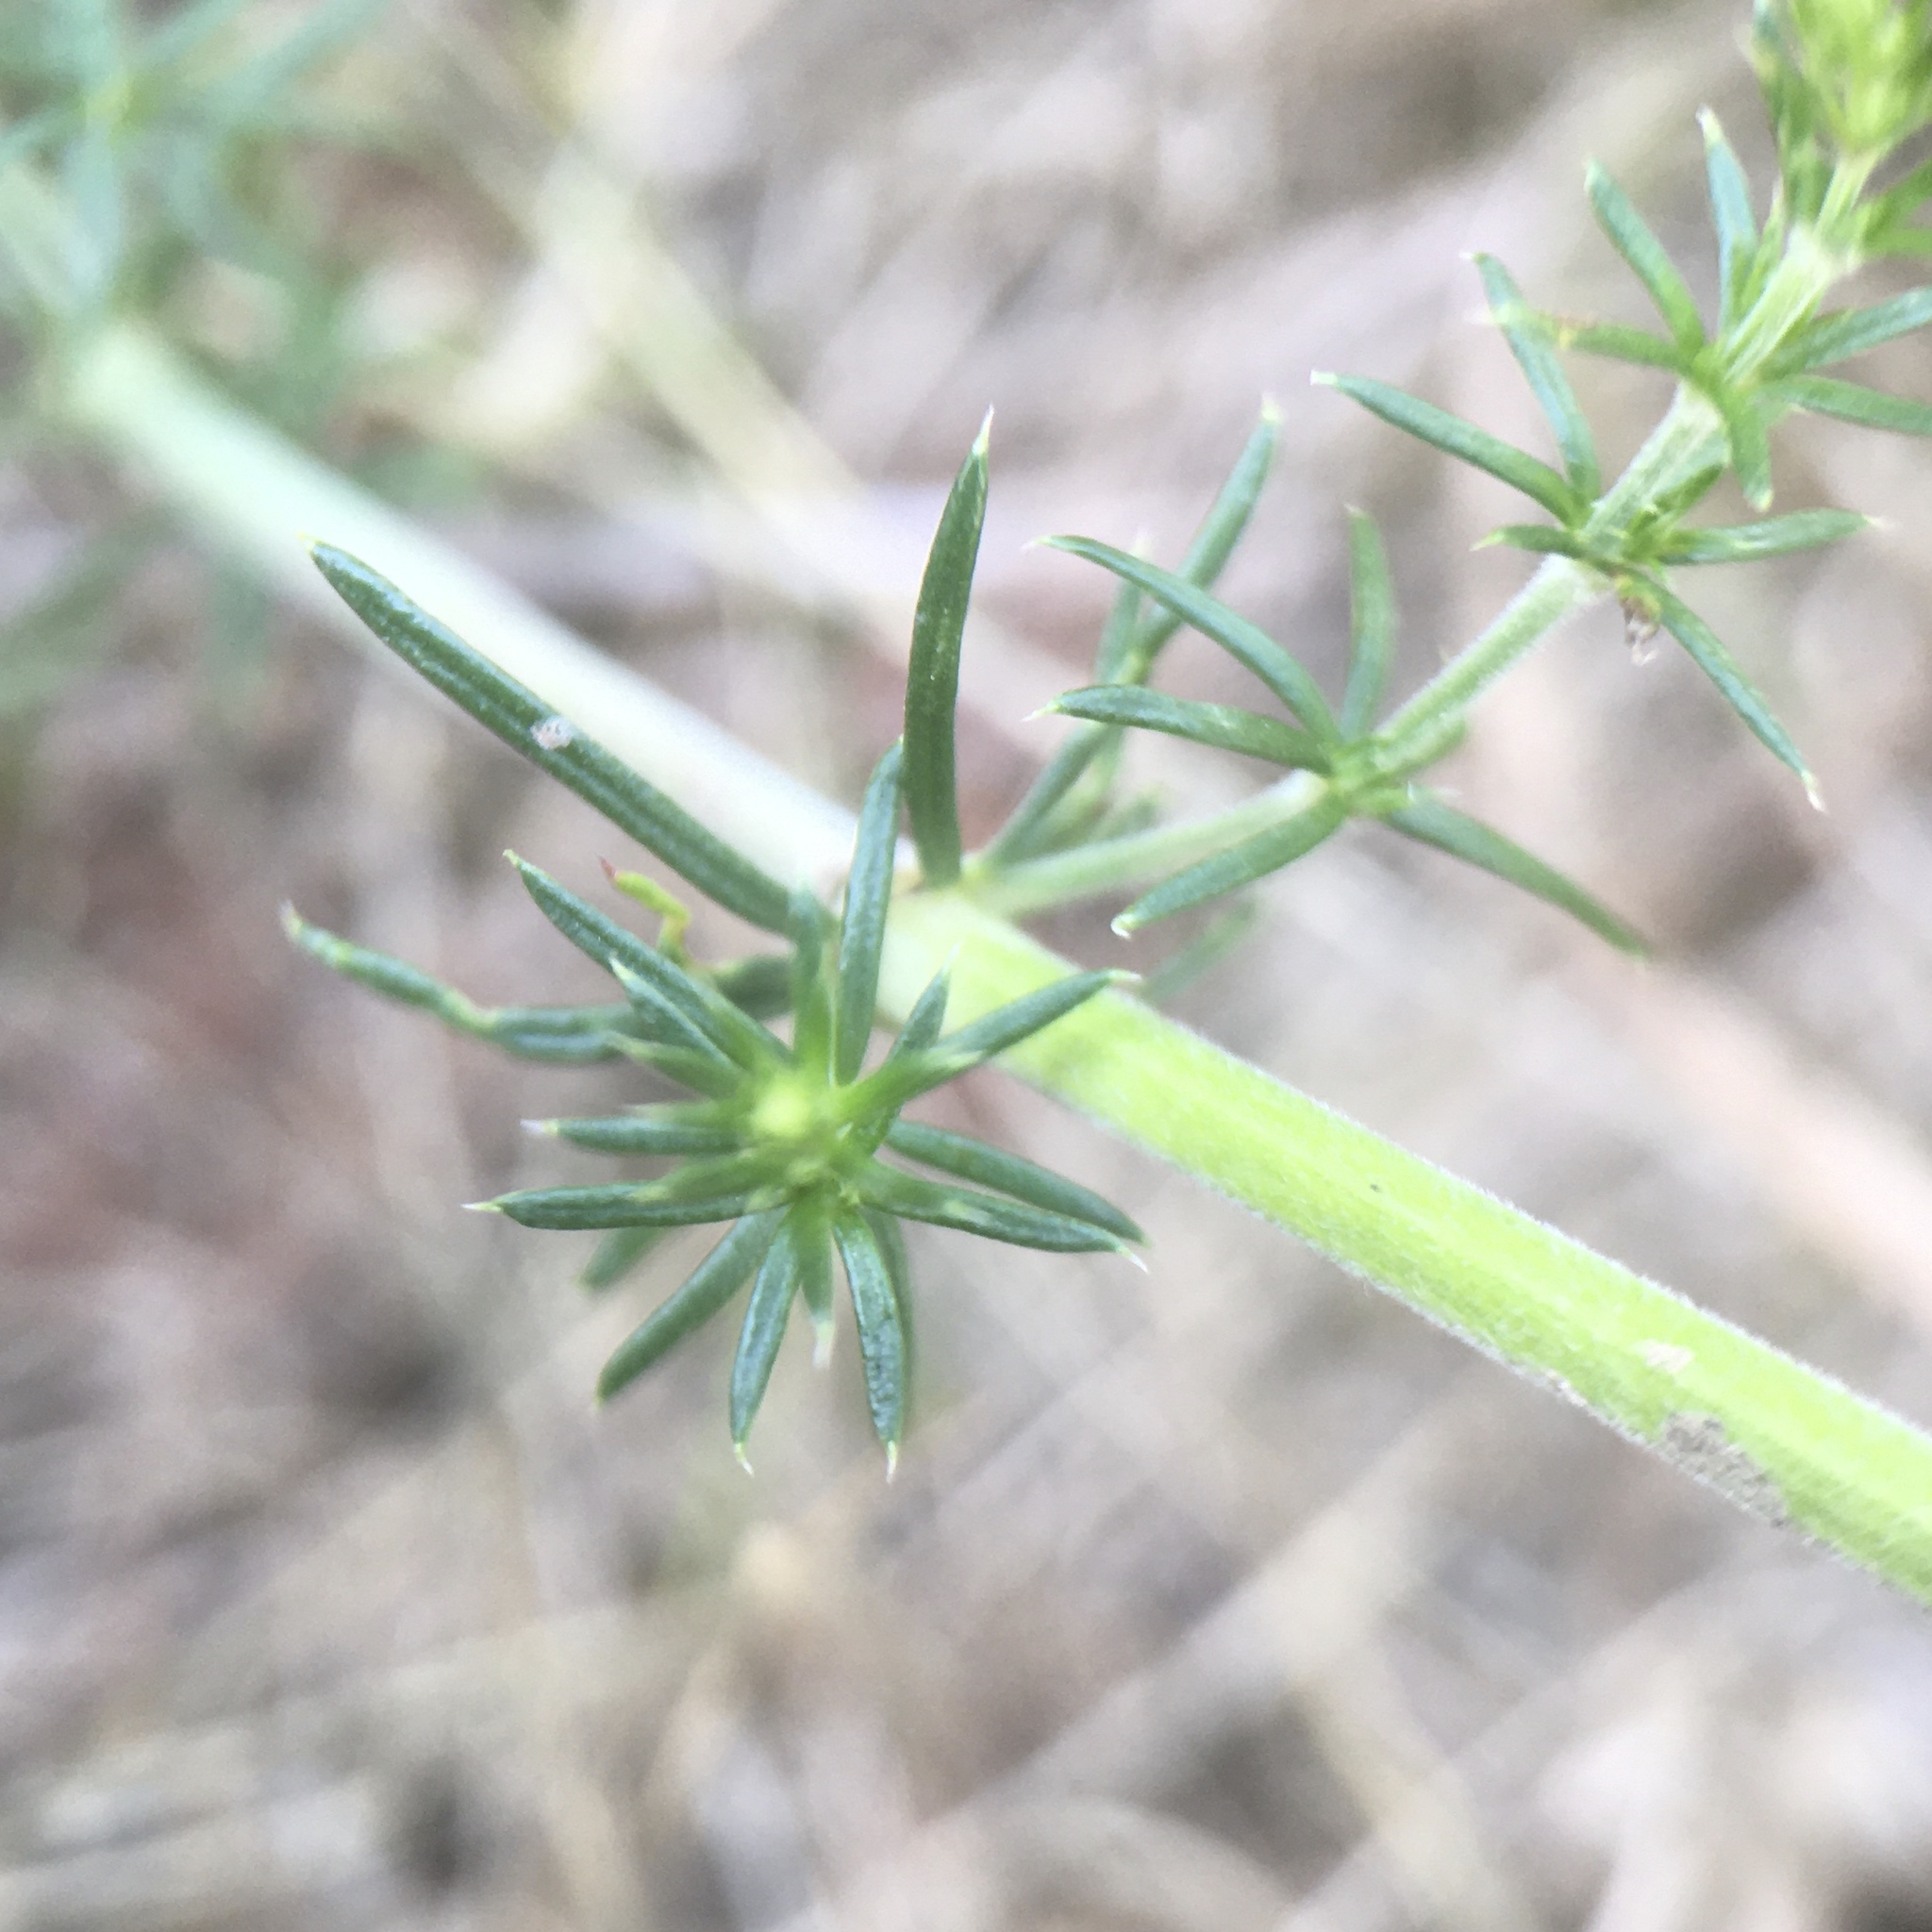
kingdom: Plantae
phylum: Tracheophyta
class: Magnoliopsida
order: Gentianales
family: Rubiaceae
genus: Galium
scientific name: Galium verum
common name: Lady's bedstraw
